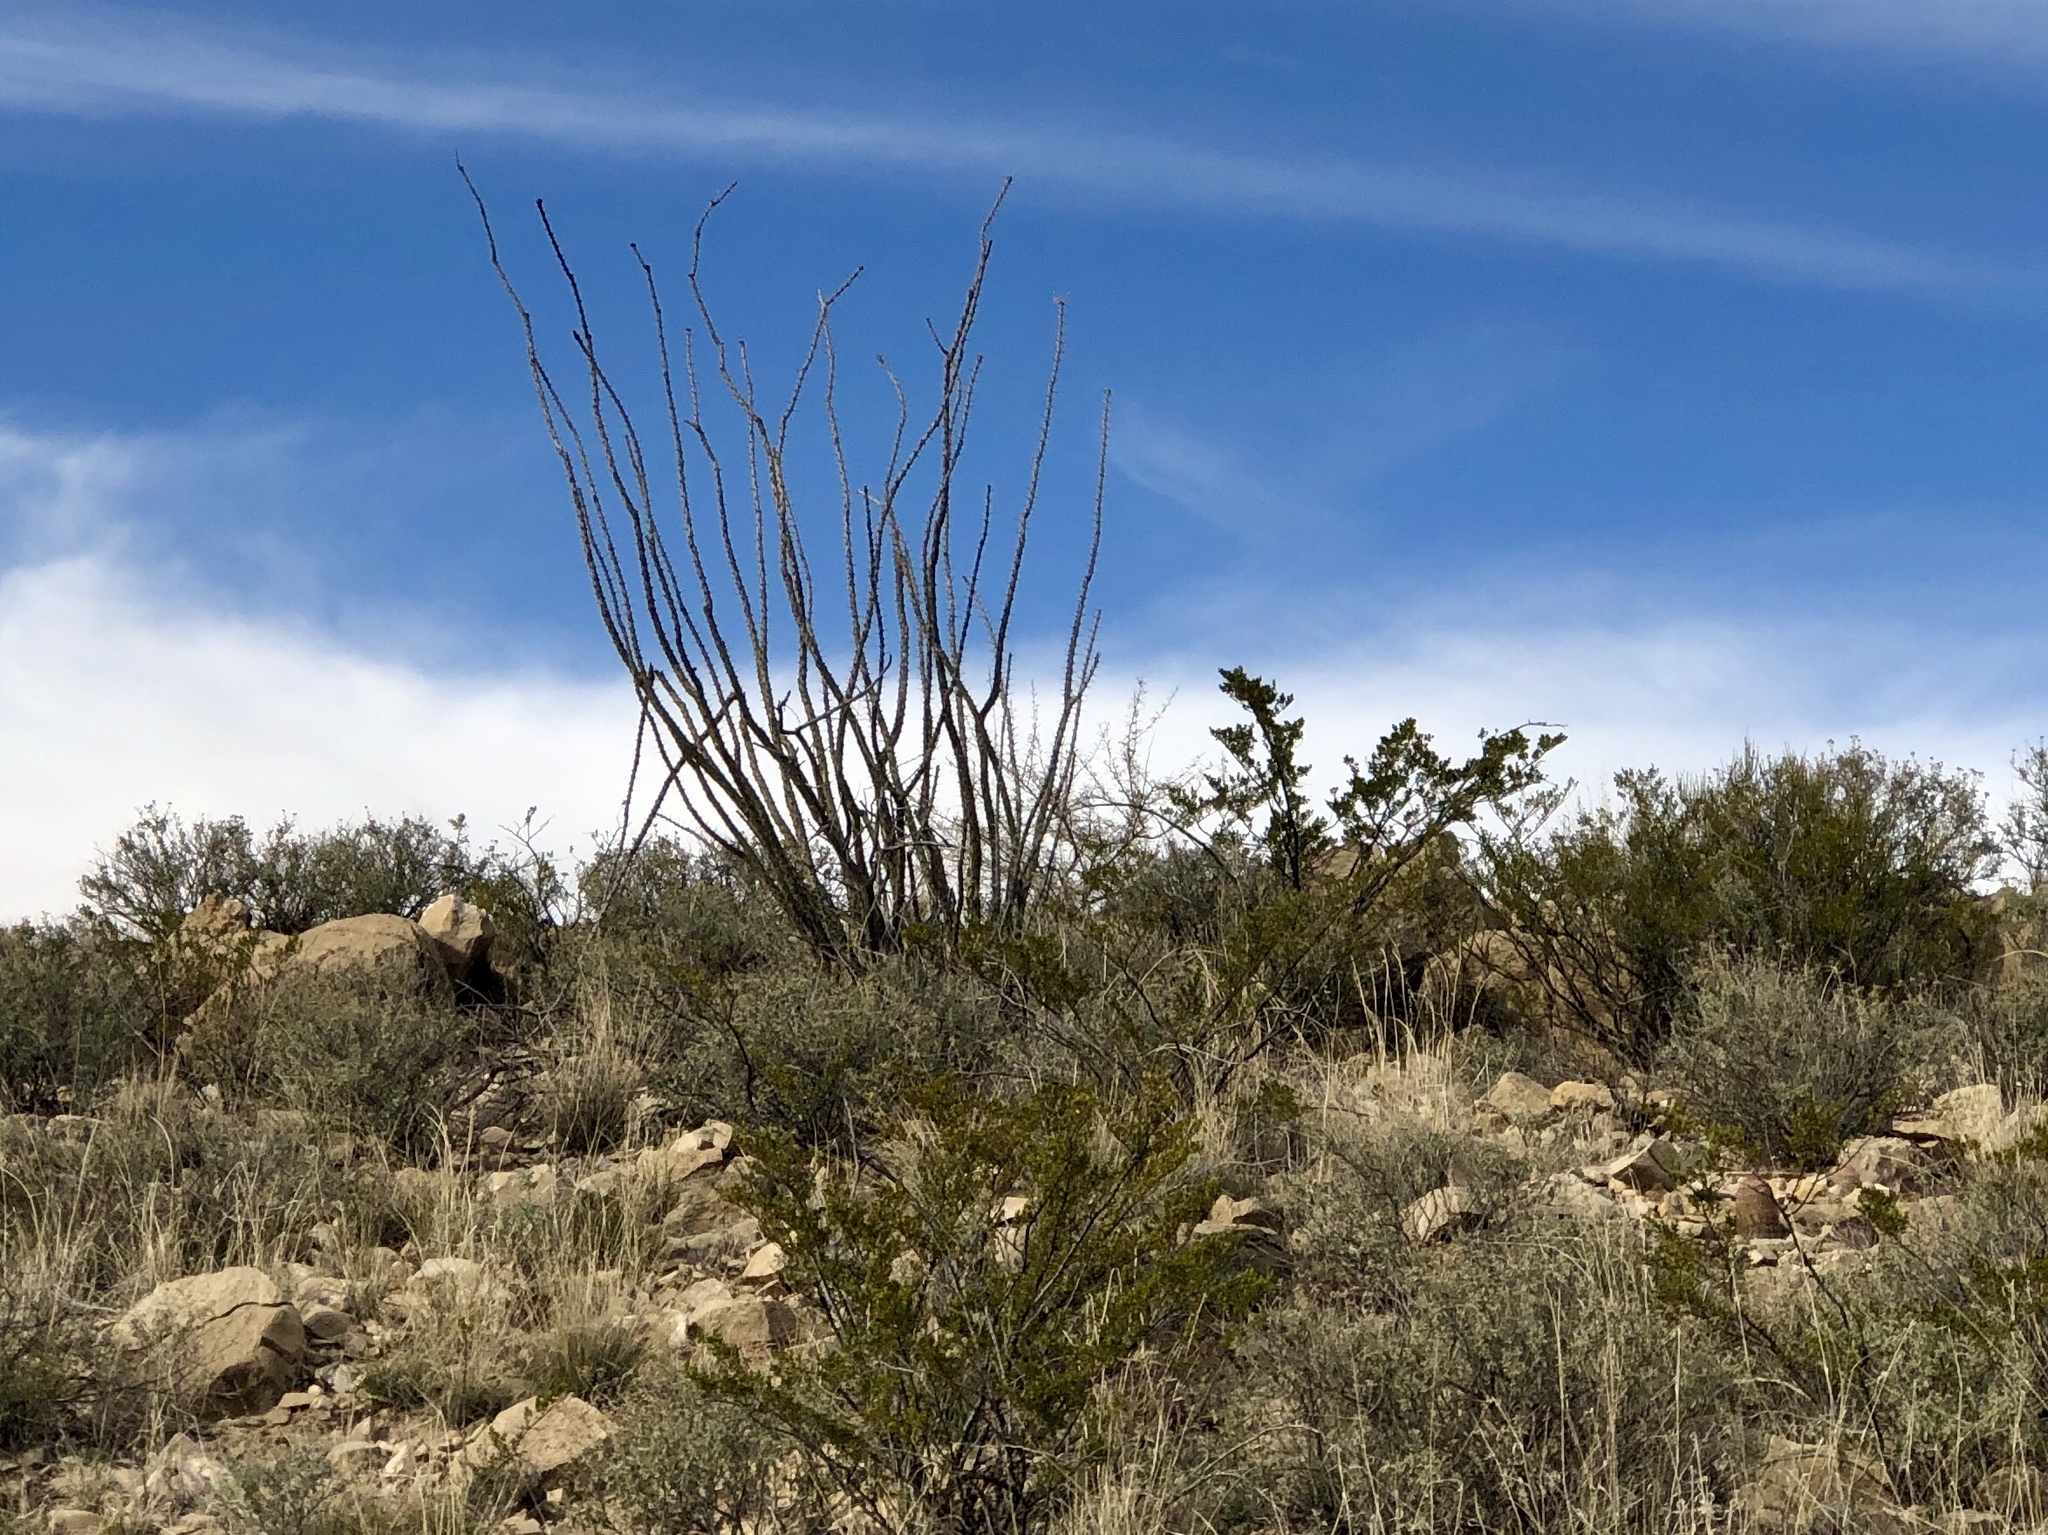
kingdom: Plantae
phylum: Tracheophyta
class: Magnoliopsida
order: Ericales
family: Fouquieriaceae
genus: Fouquieria
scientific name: Fouquieria splendens
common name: Vine-cactus
